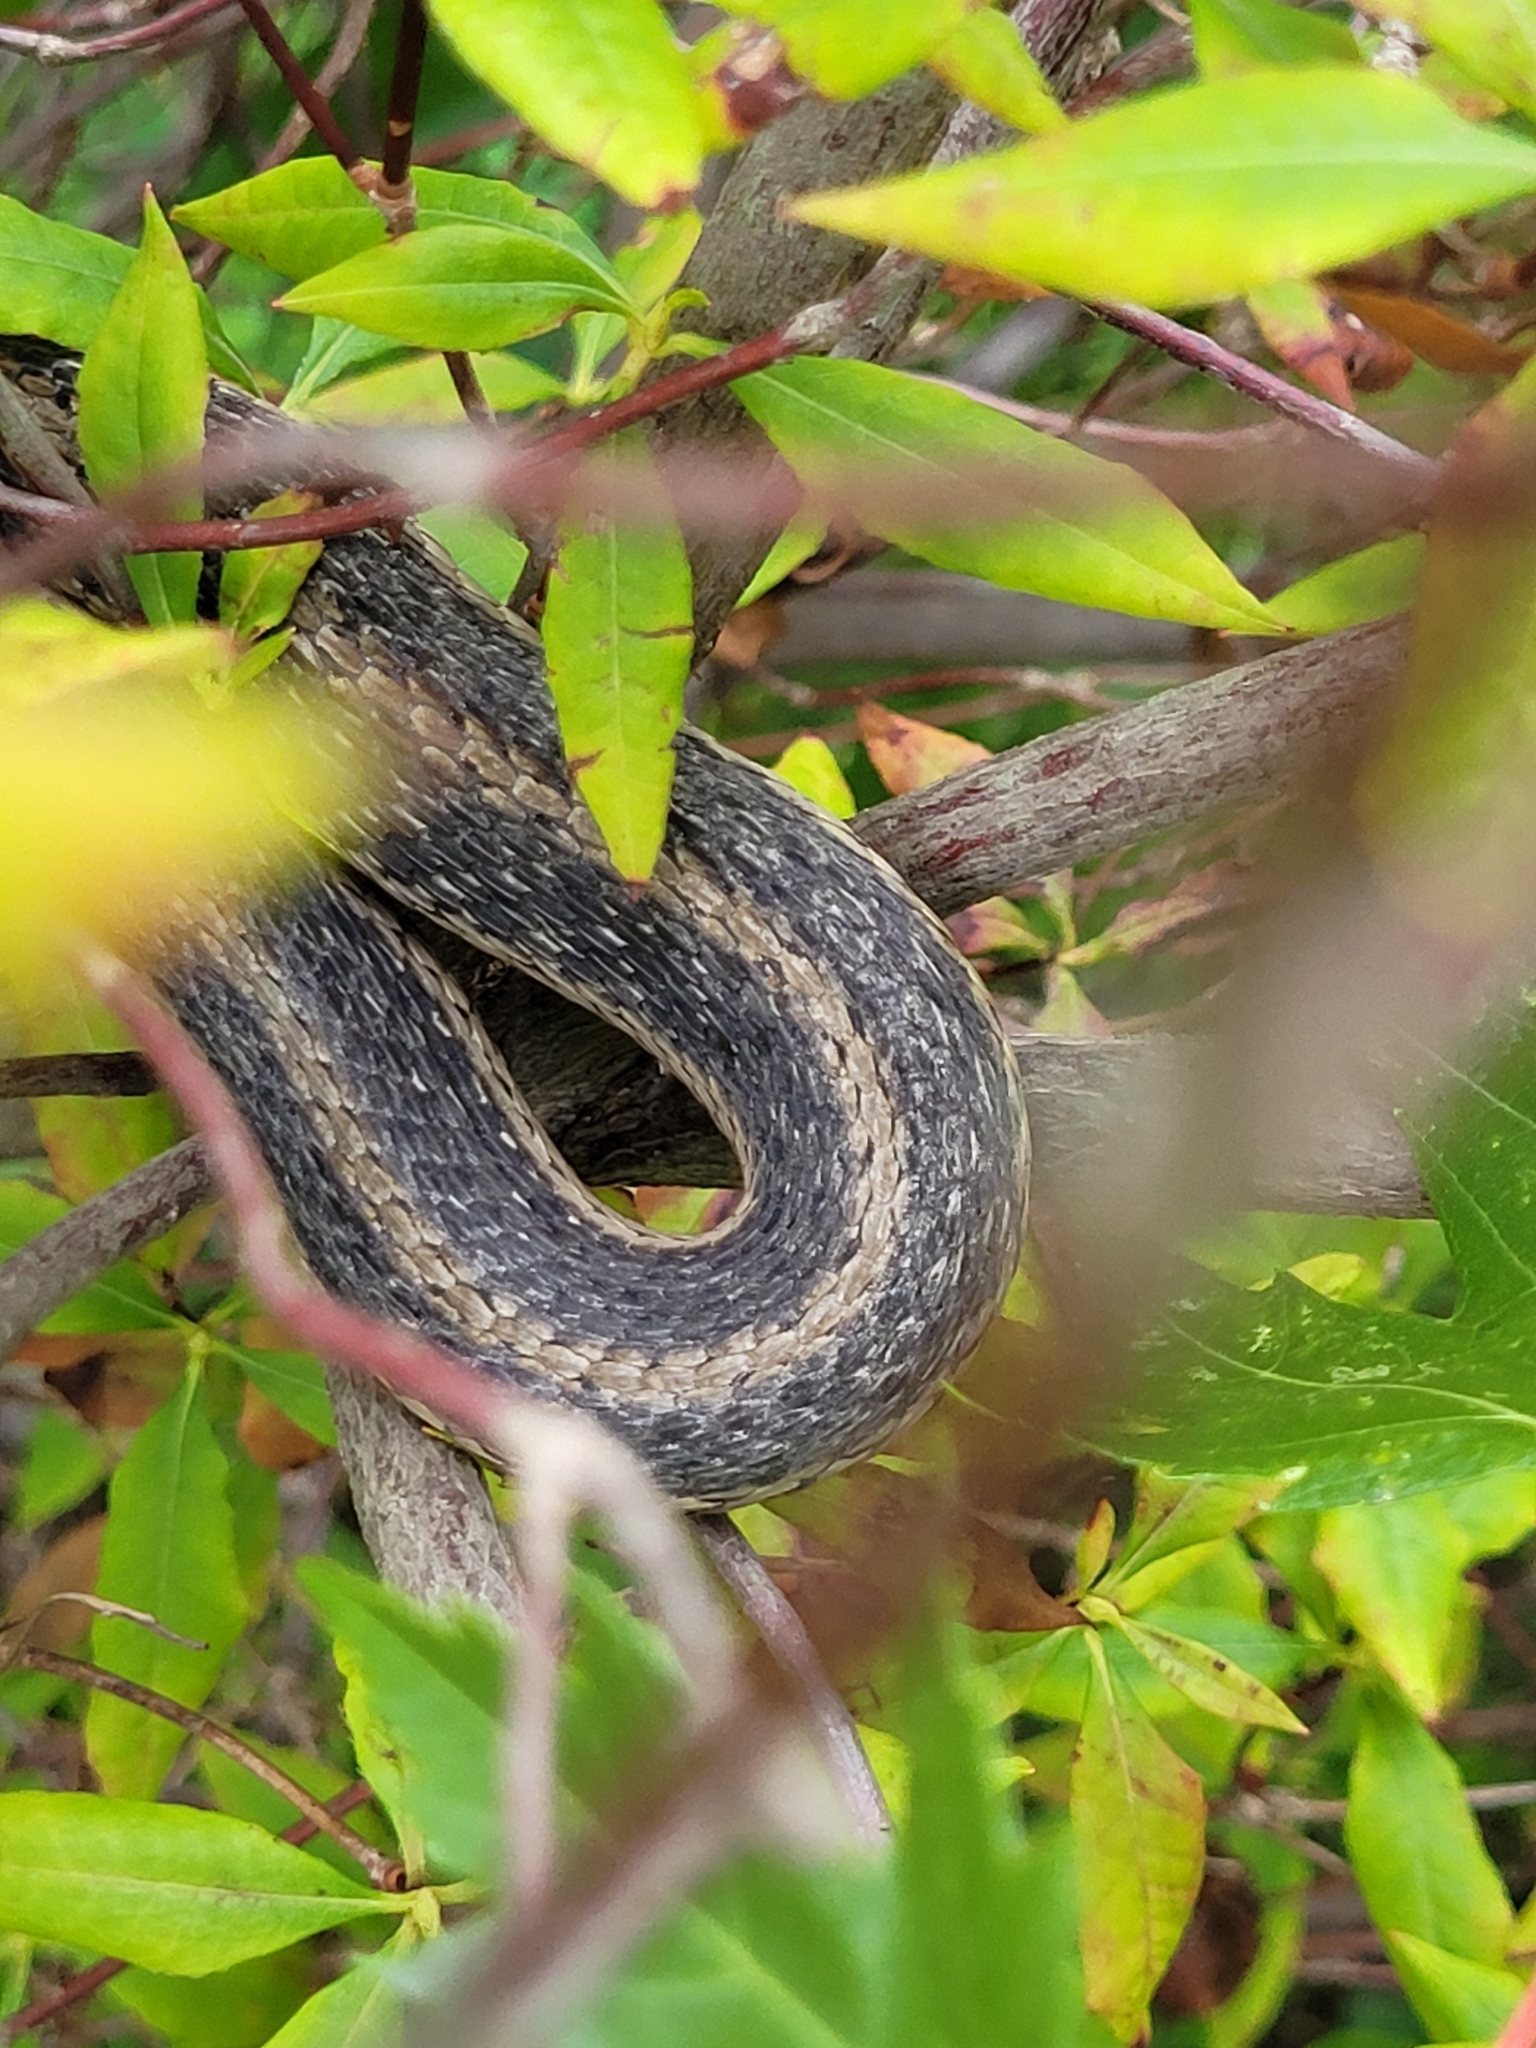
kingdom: Animalia
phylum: Chordata
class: Squamata
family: Colubridae
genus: Thamnophis
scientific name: Thamnophis sirtalis
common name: Common garter snake
